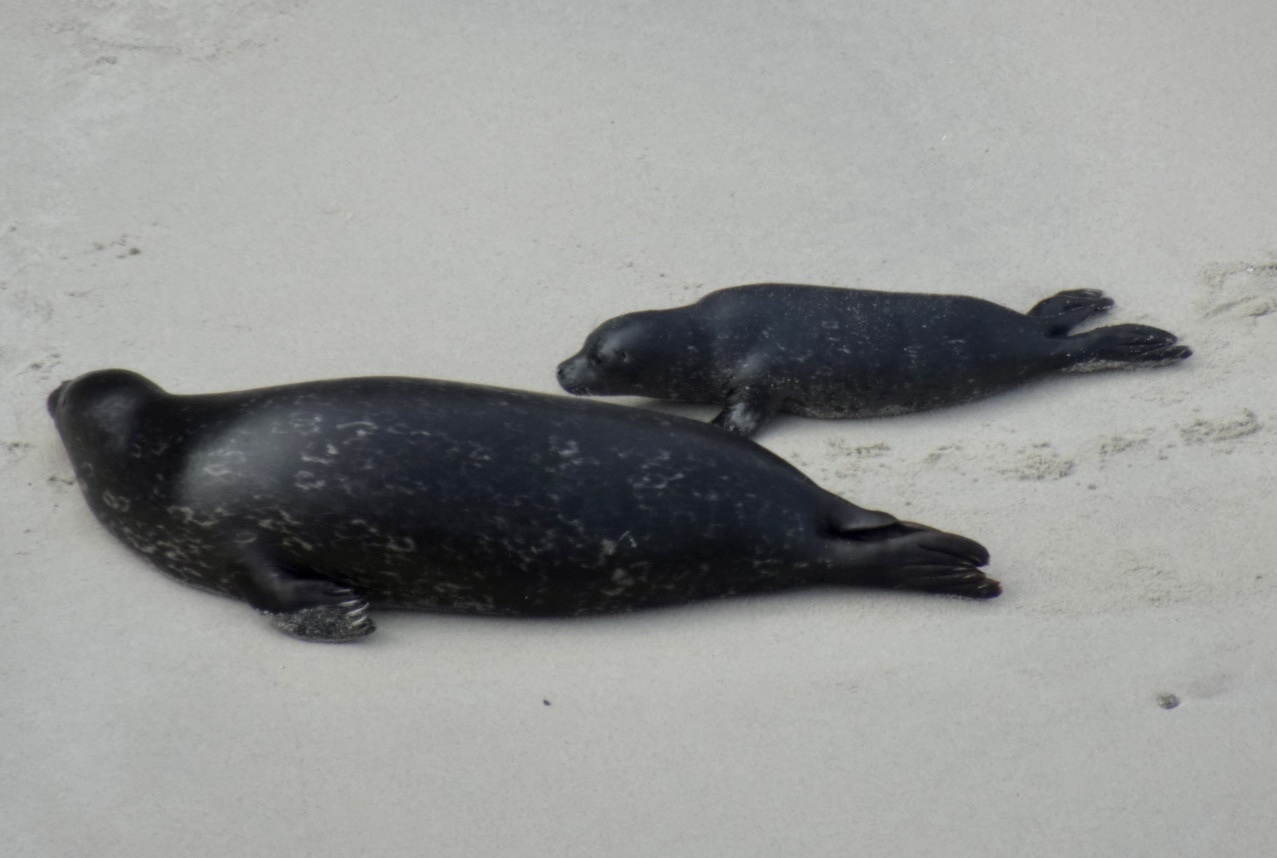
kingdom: Animalia
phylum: Chordata
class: Mammalia
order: Carnivora
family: Phocidae
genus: Phoca
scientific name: Phoca vitulina
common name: Harbor seal
